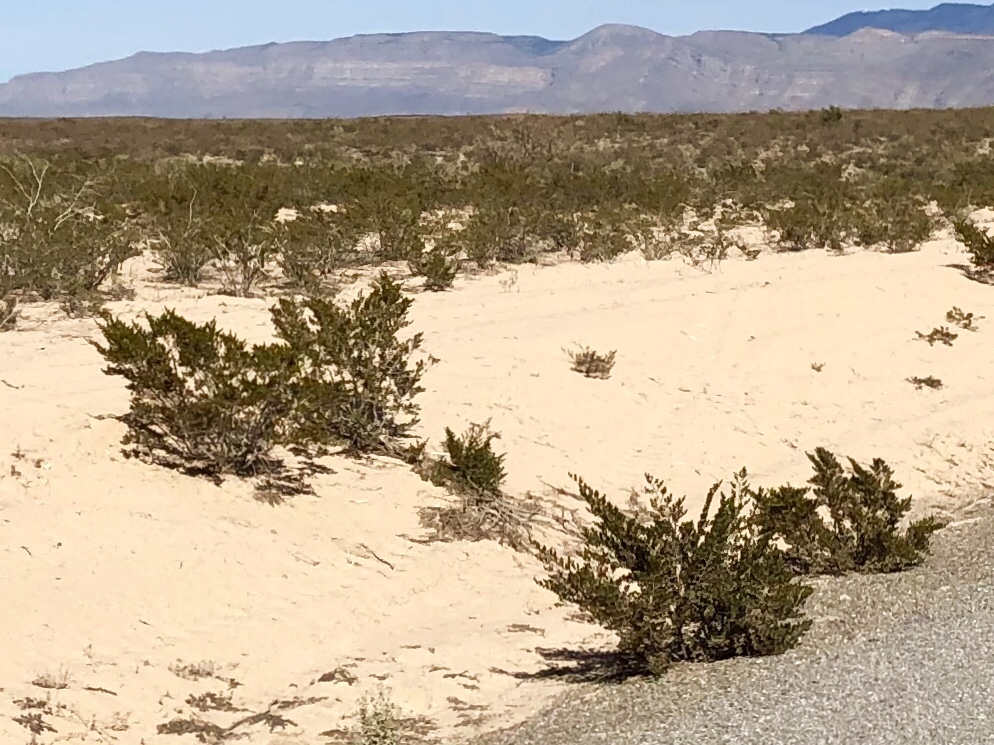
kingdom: Plantae
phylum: Tracheophyta
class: Magnoliopsida
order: Zygophyllales
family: Zygophyllaceae
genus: Larrea
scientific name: Larrea tridentata
